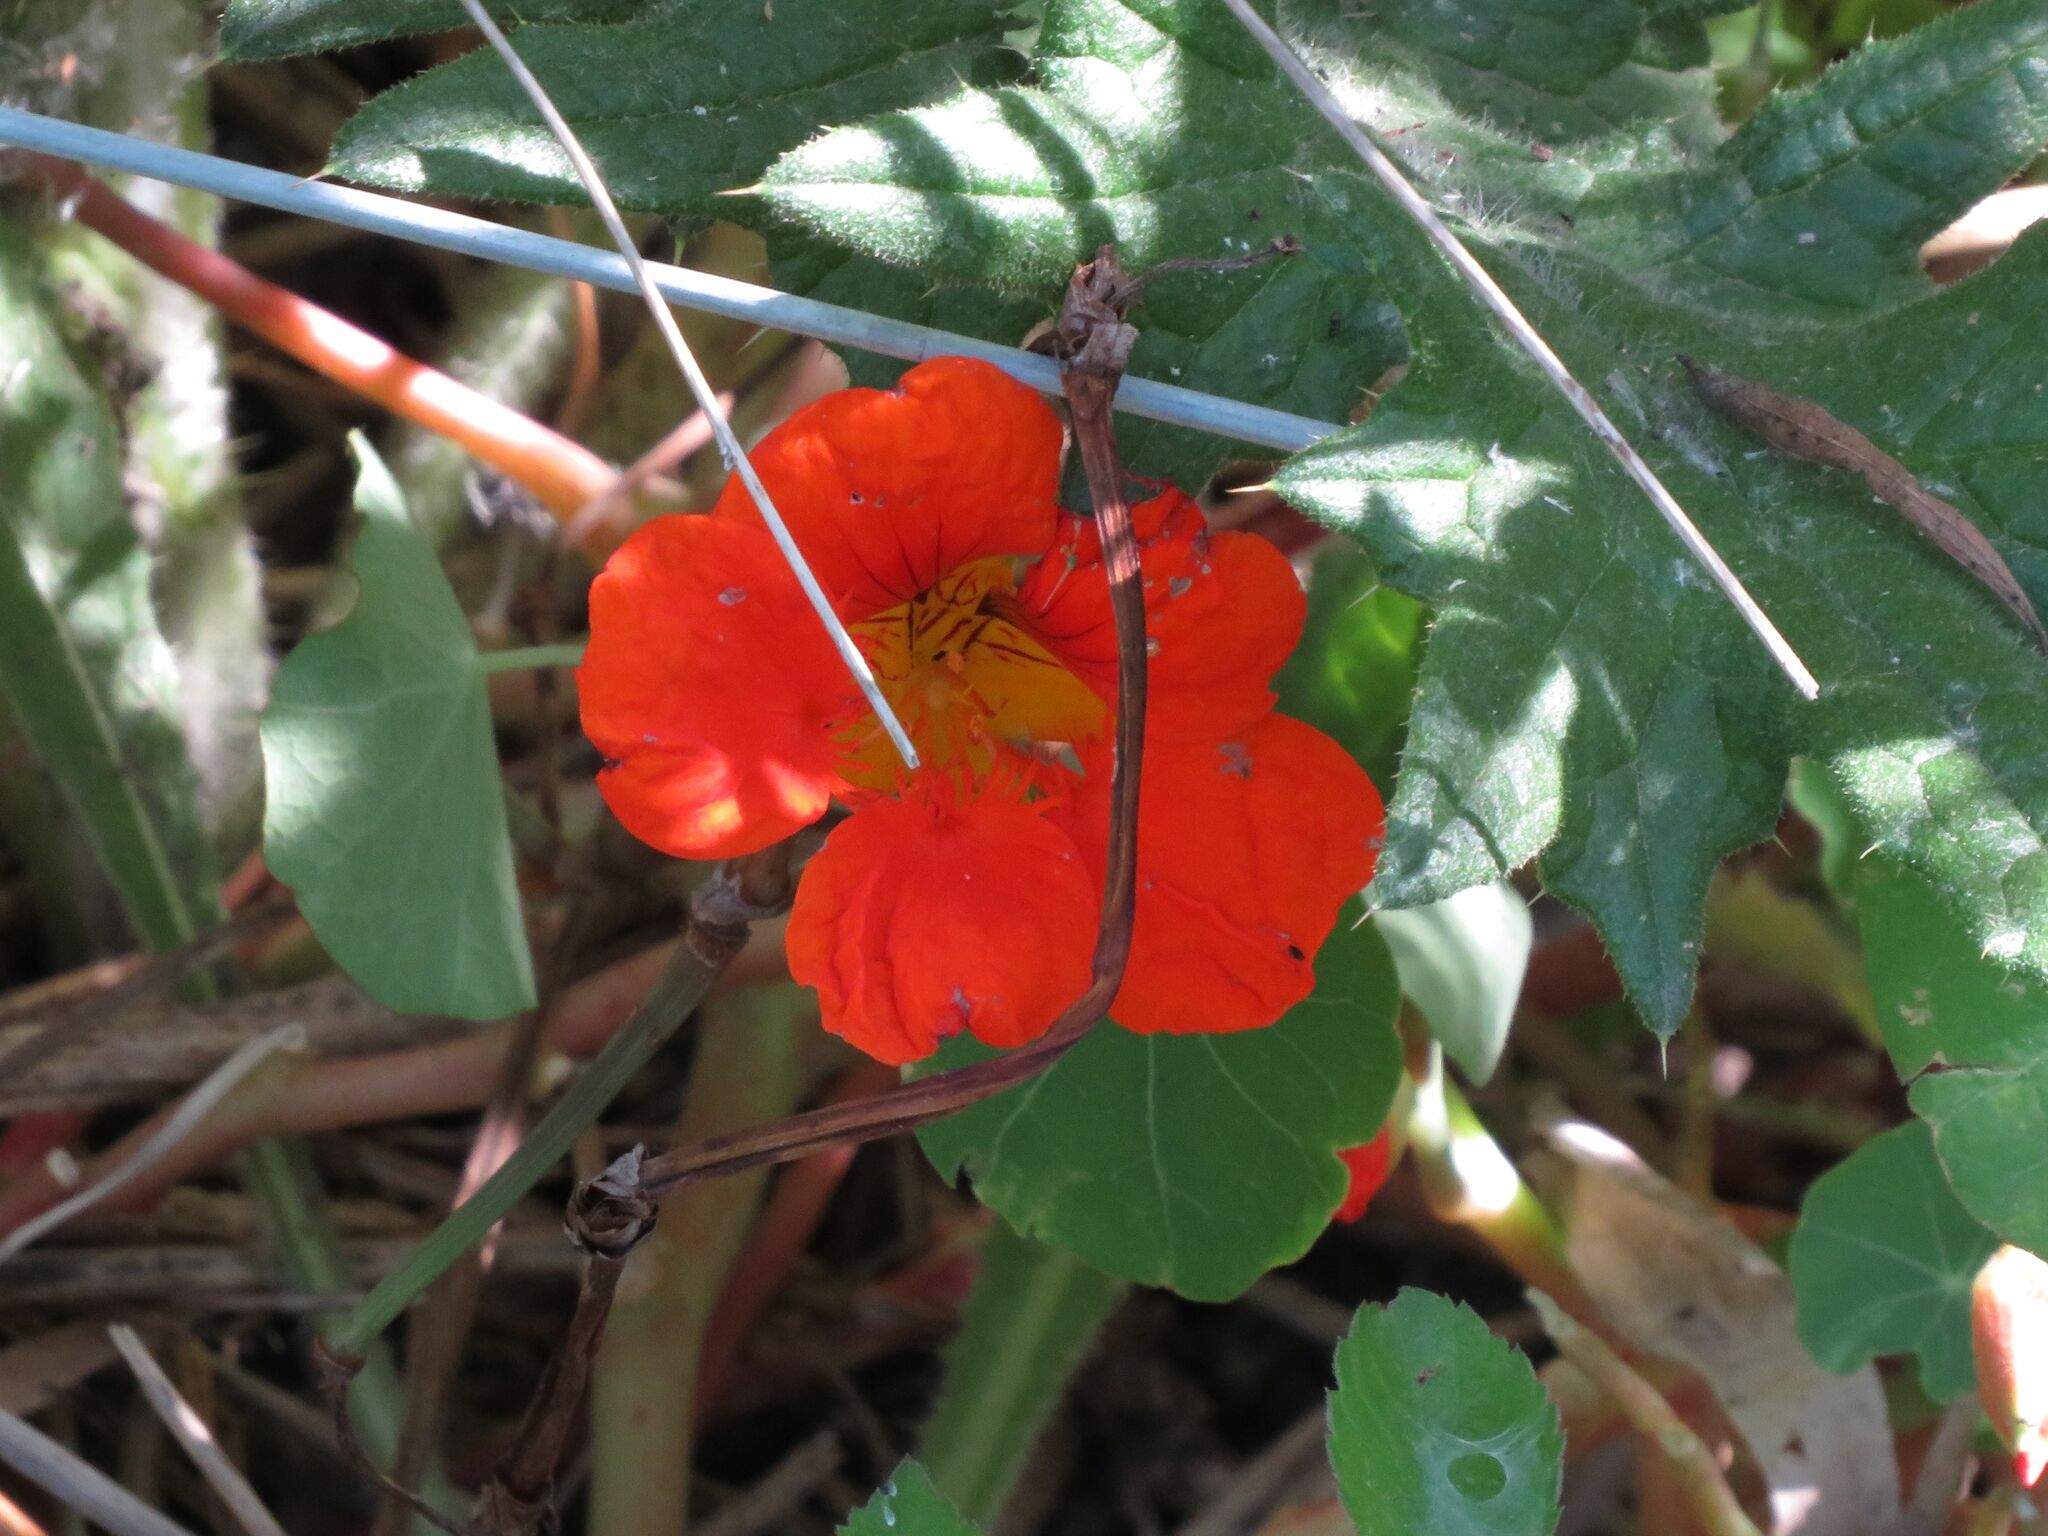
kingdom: Plantae
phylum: Tracheophyta
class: Magnoliopsida
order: Brassicales
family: Tropaeolaceae
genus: Tropaeolum
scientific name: Tropaeolum majus
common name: Nasturtium
